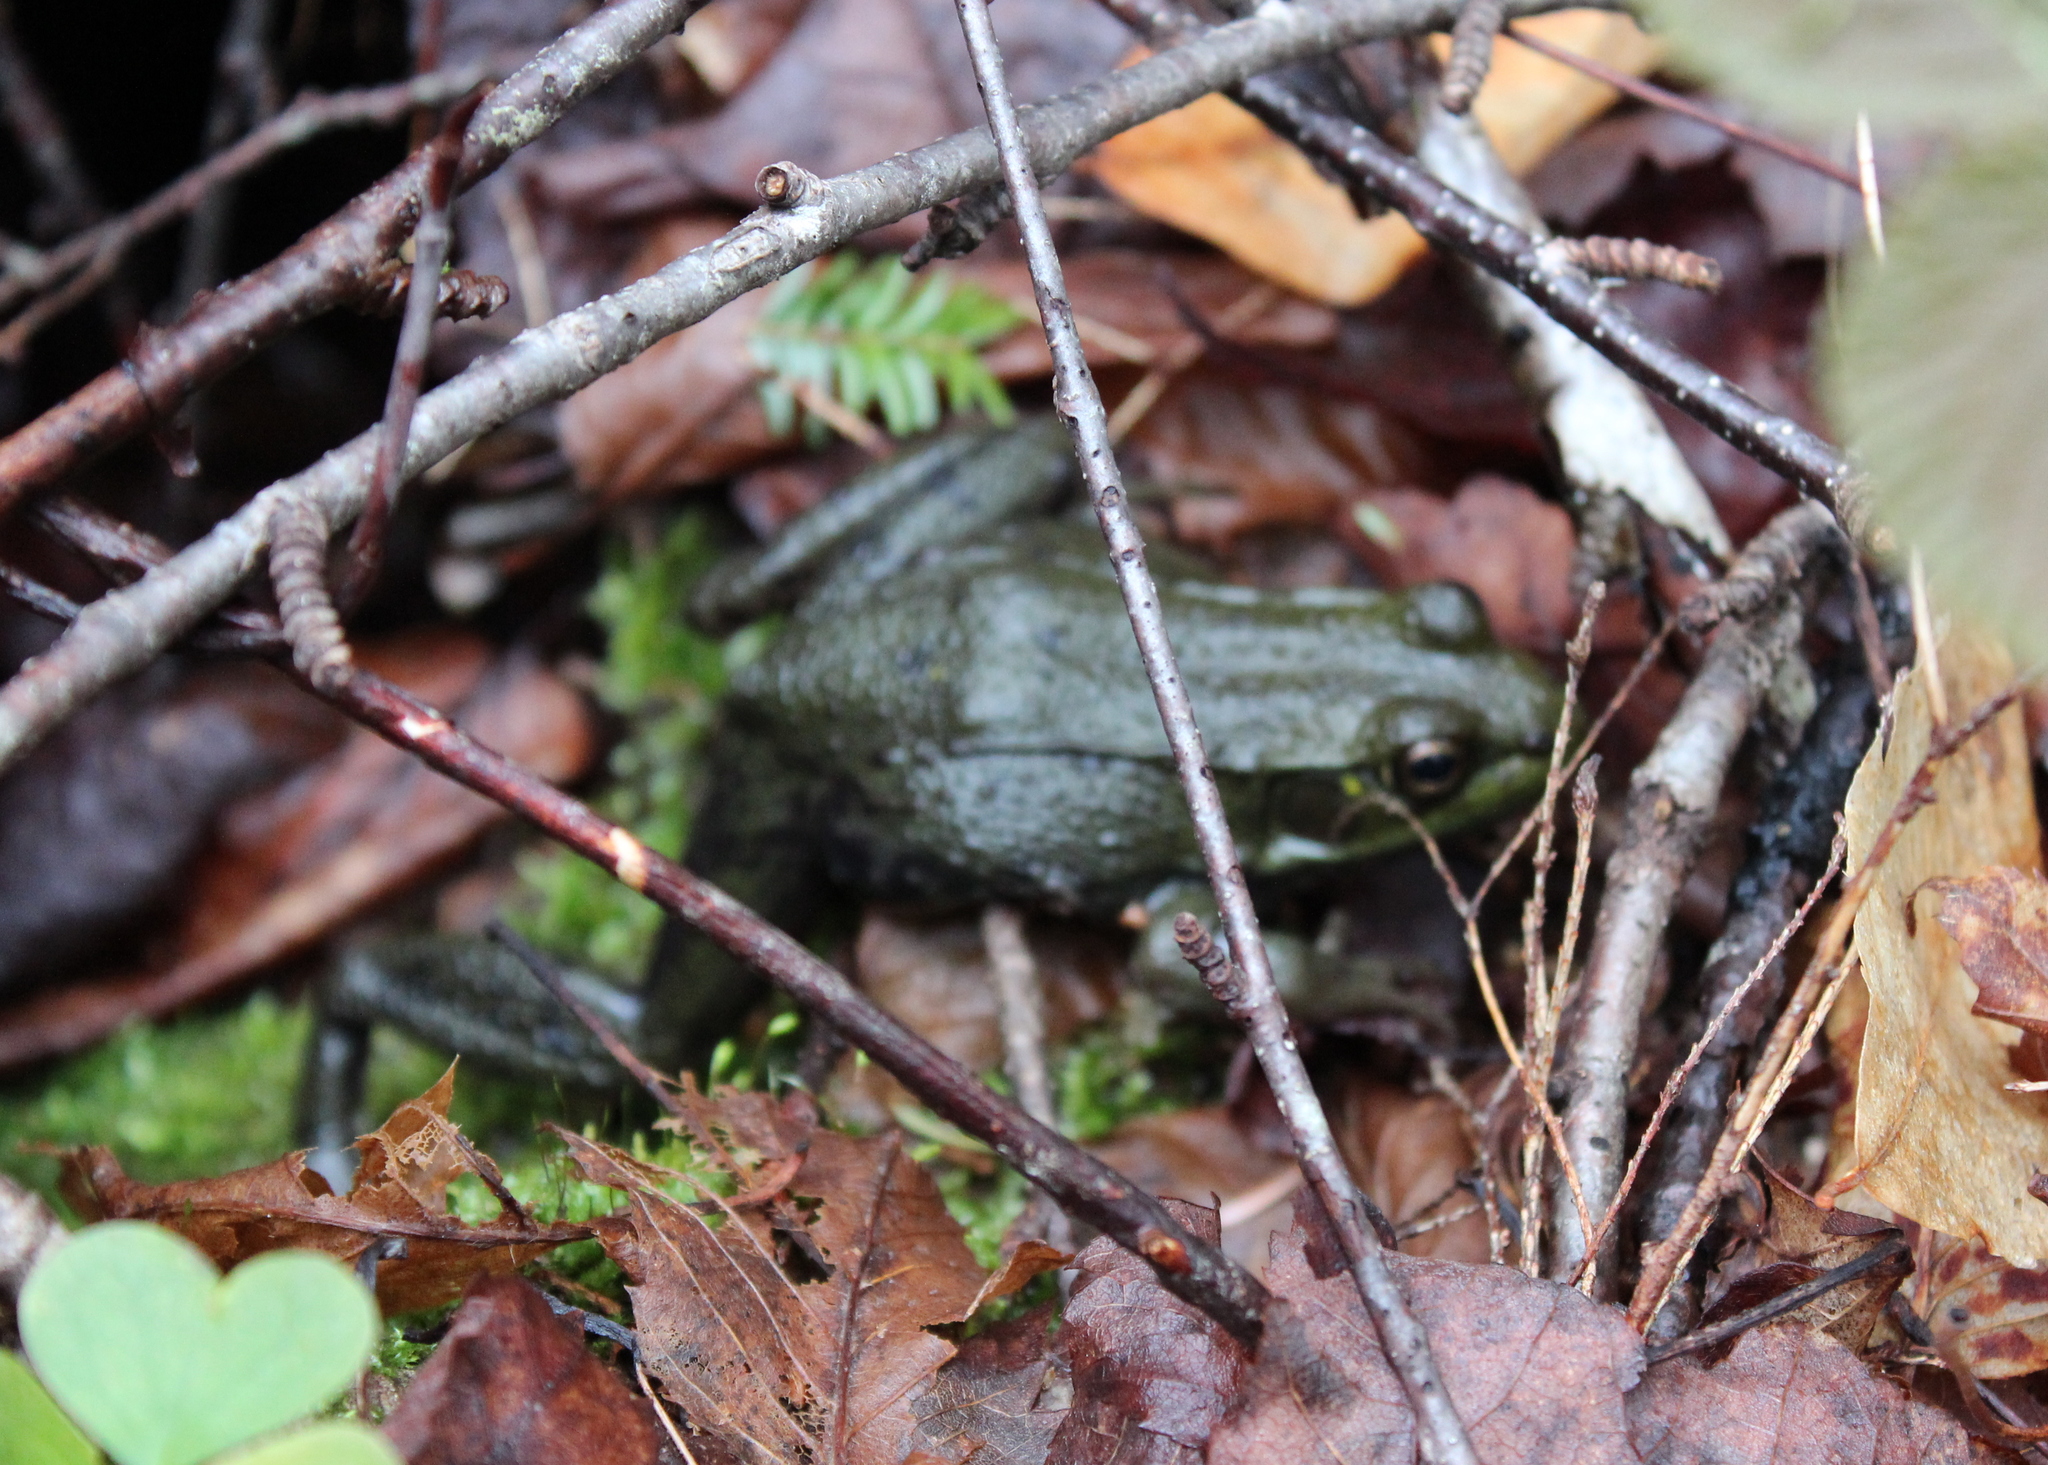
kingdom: Animalia
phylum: Chordata
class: Amphibia
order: Anura
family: Ranidae
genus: Lithobates
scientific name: Lithobates clamitans
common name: Green frog
